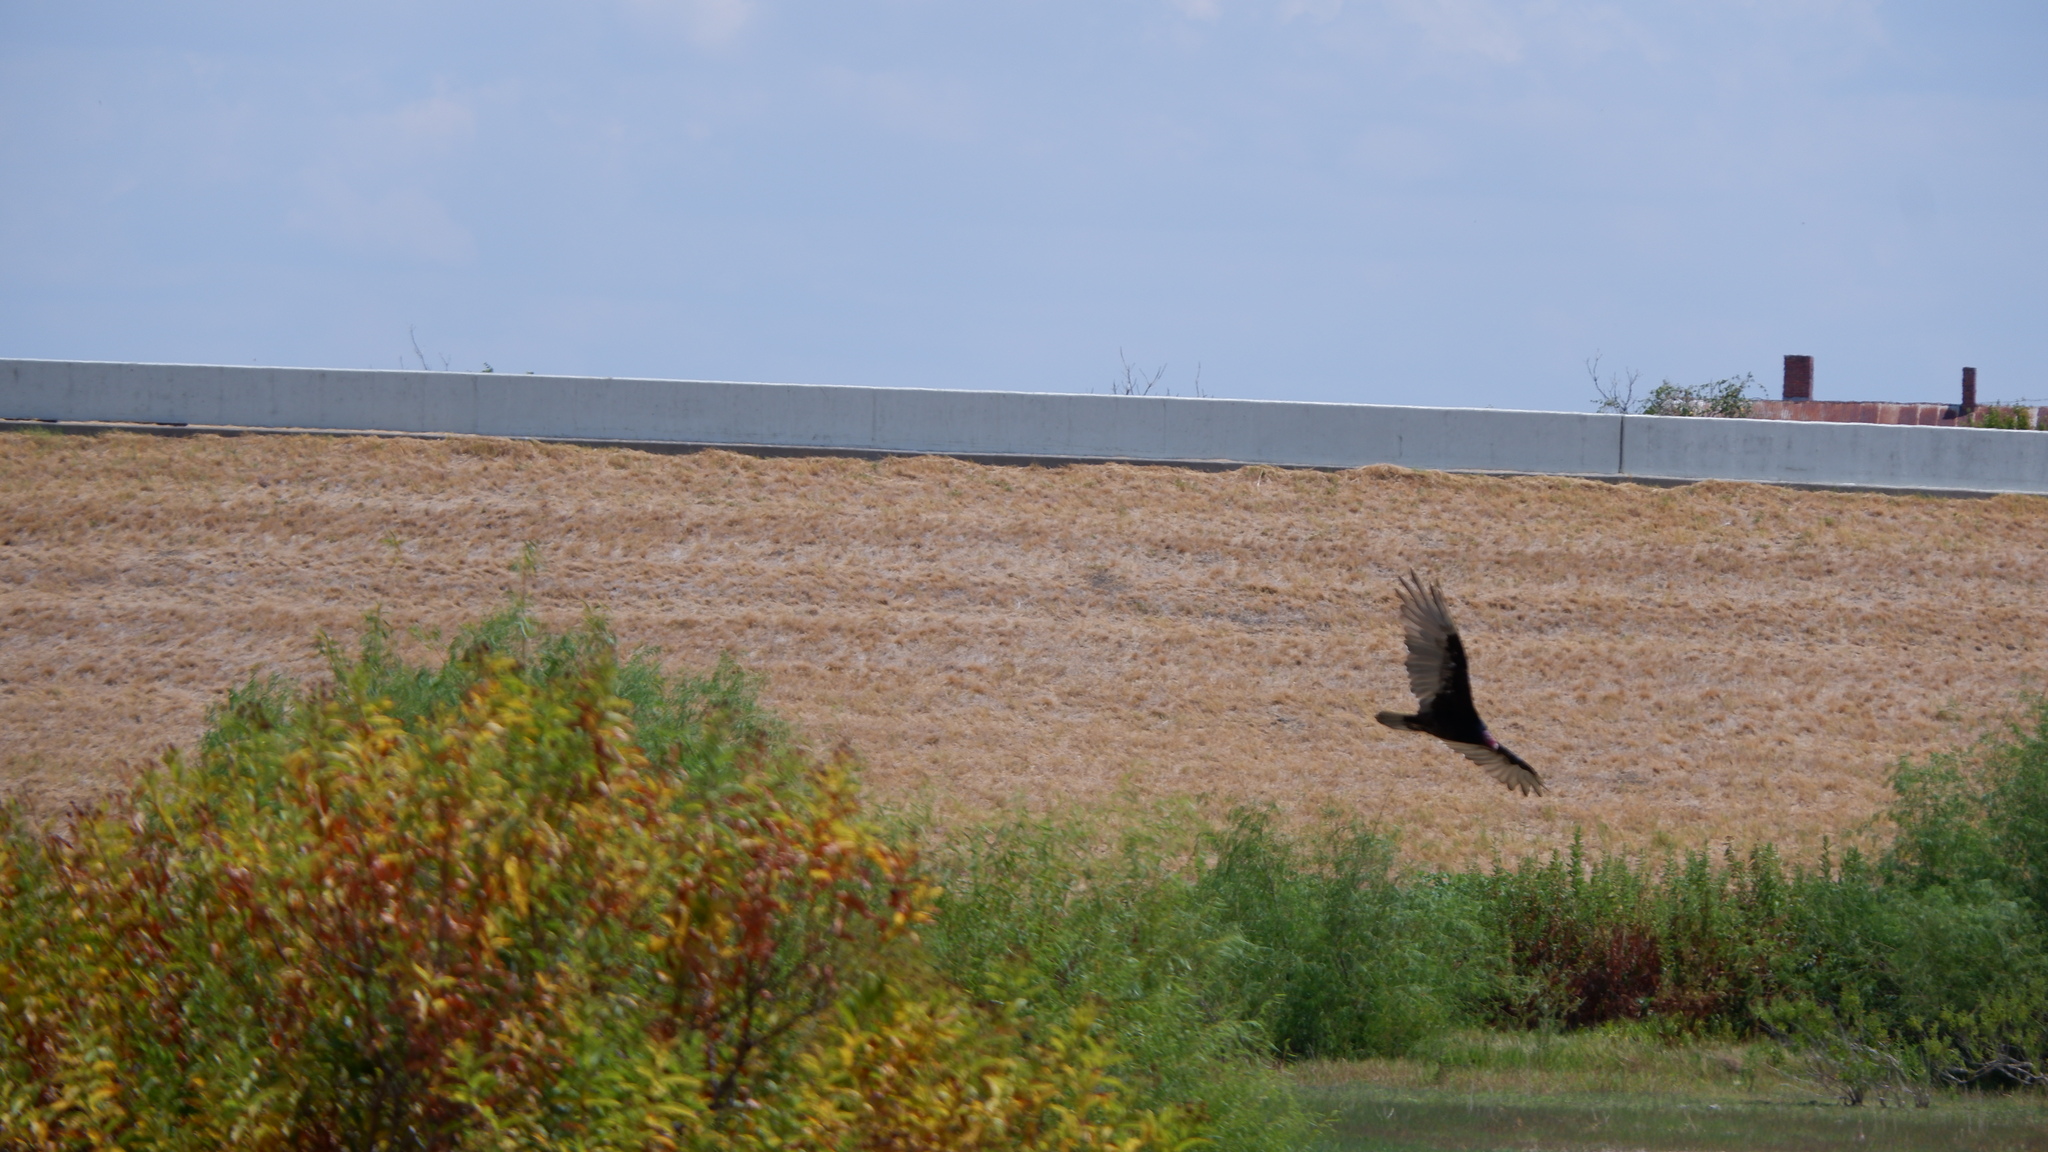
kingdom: Animalia
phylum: Chordata
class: Aves
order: Accipitriformes
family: Cathartidae
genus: Cathartes
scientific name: Cathartes aura
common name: Turkey vulture
